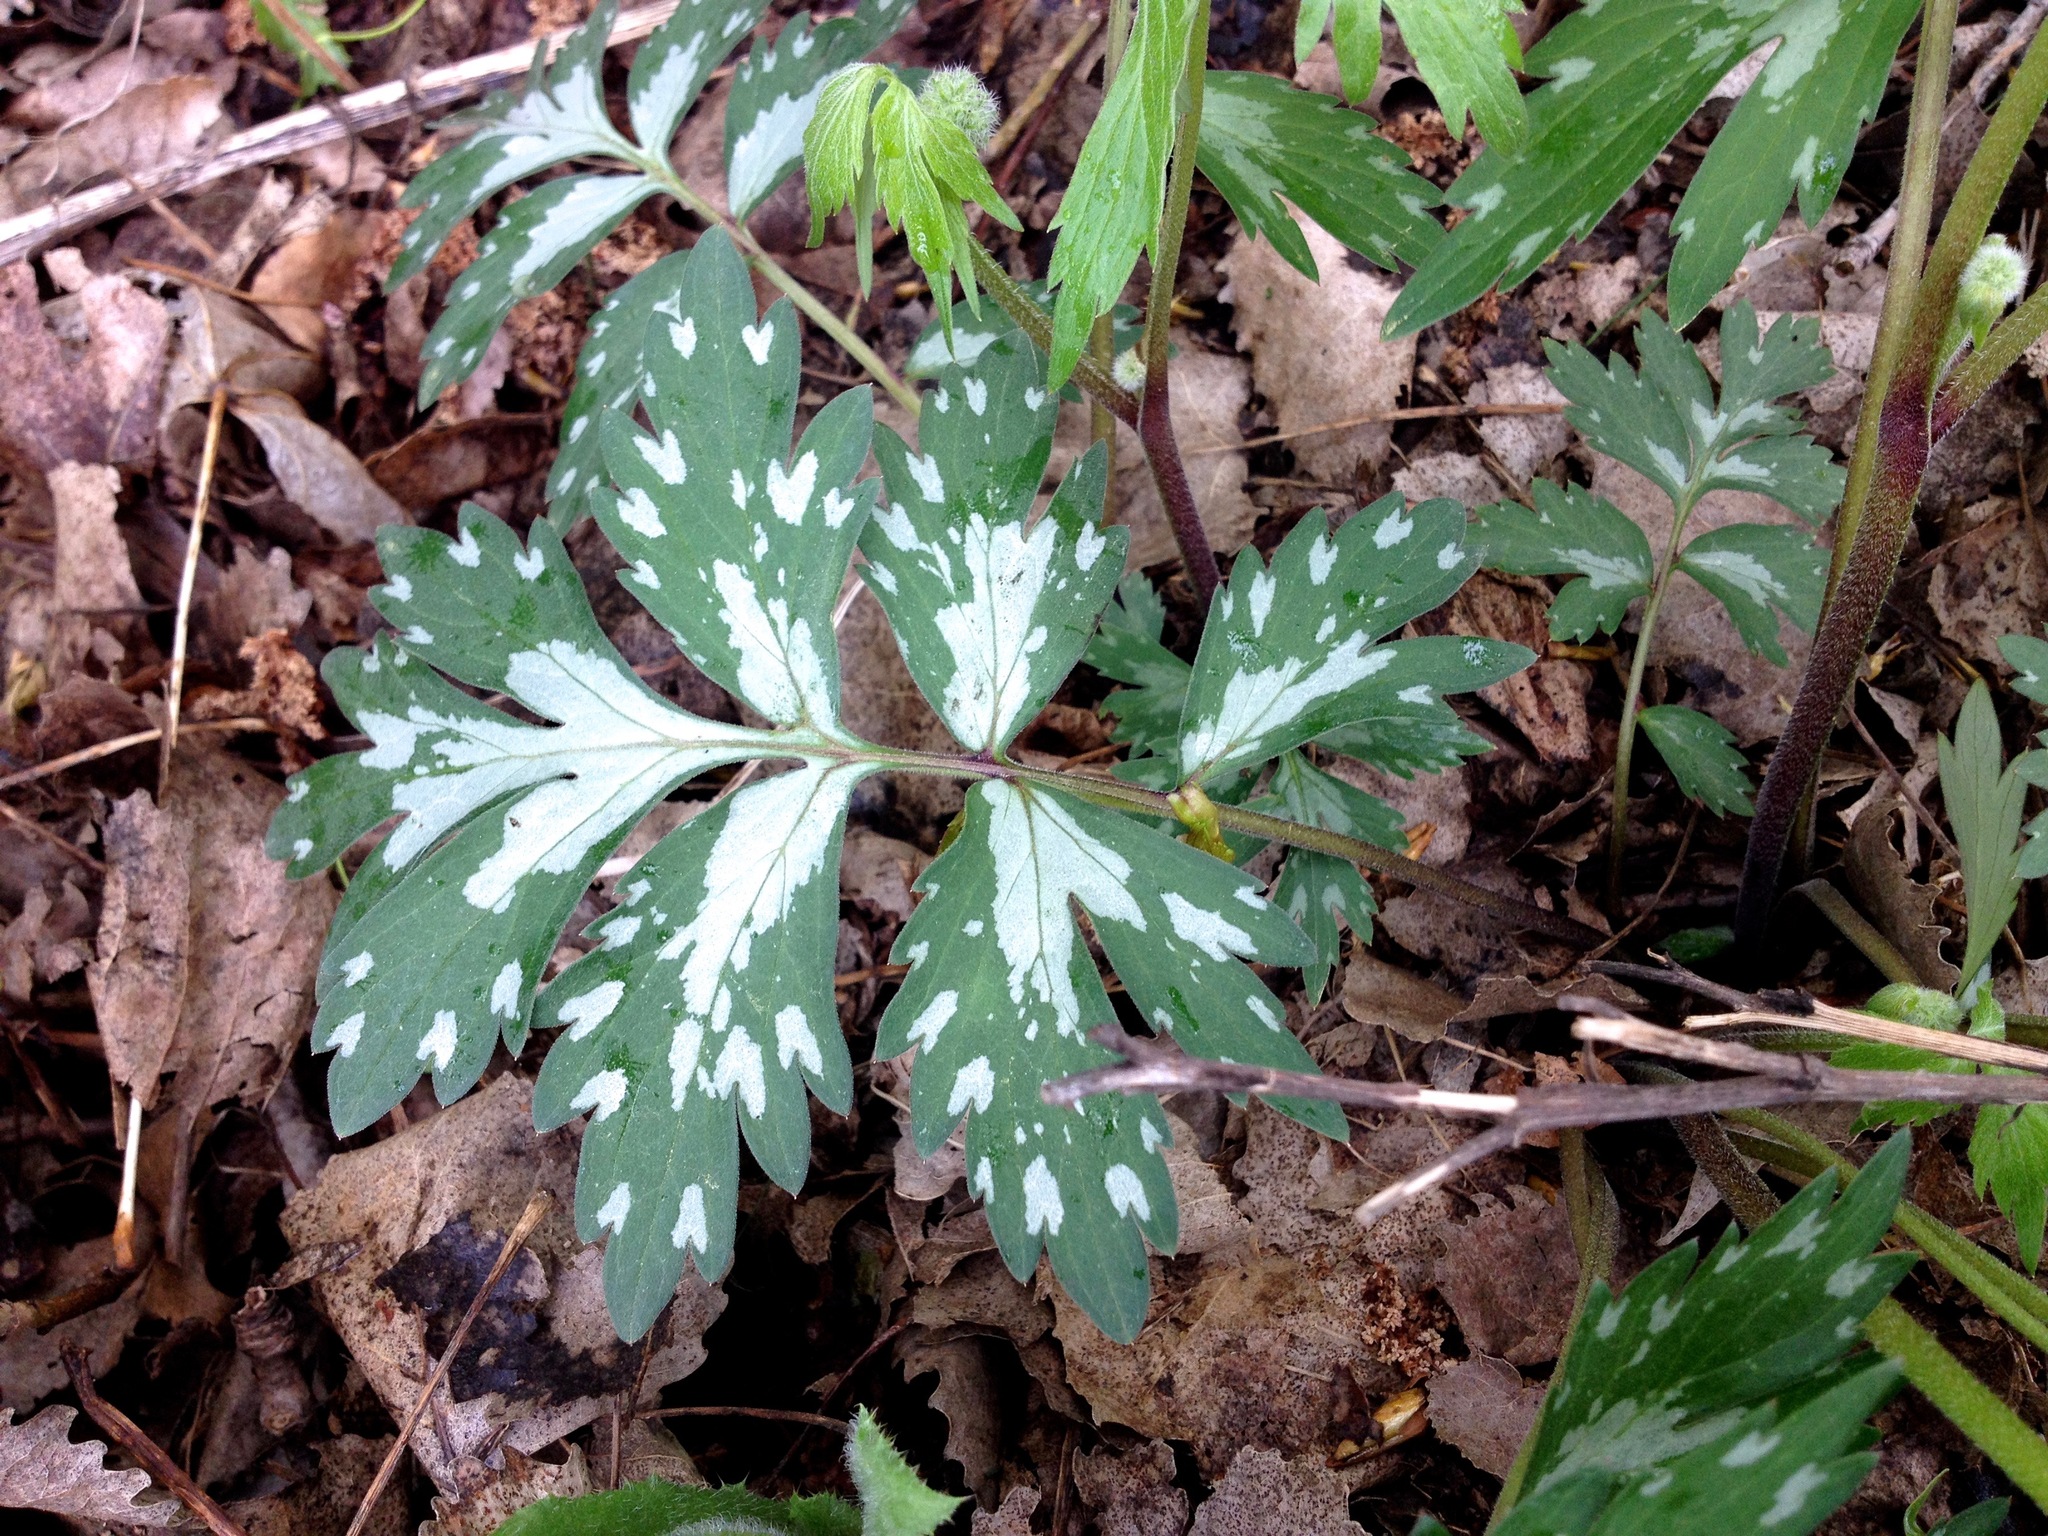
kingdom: Plantae
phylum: Tracheophyta
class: Magnoliopsida
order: Boraginales
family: Hydrophyllaceae
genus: Hydrophyllum
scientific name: Hydrophyllum virginianum
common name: Virginia waterleaf
